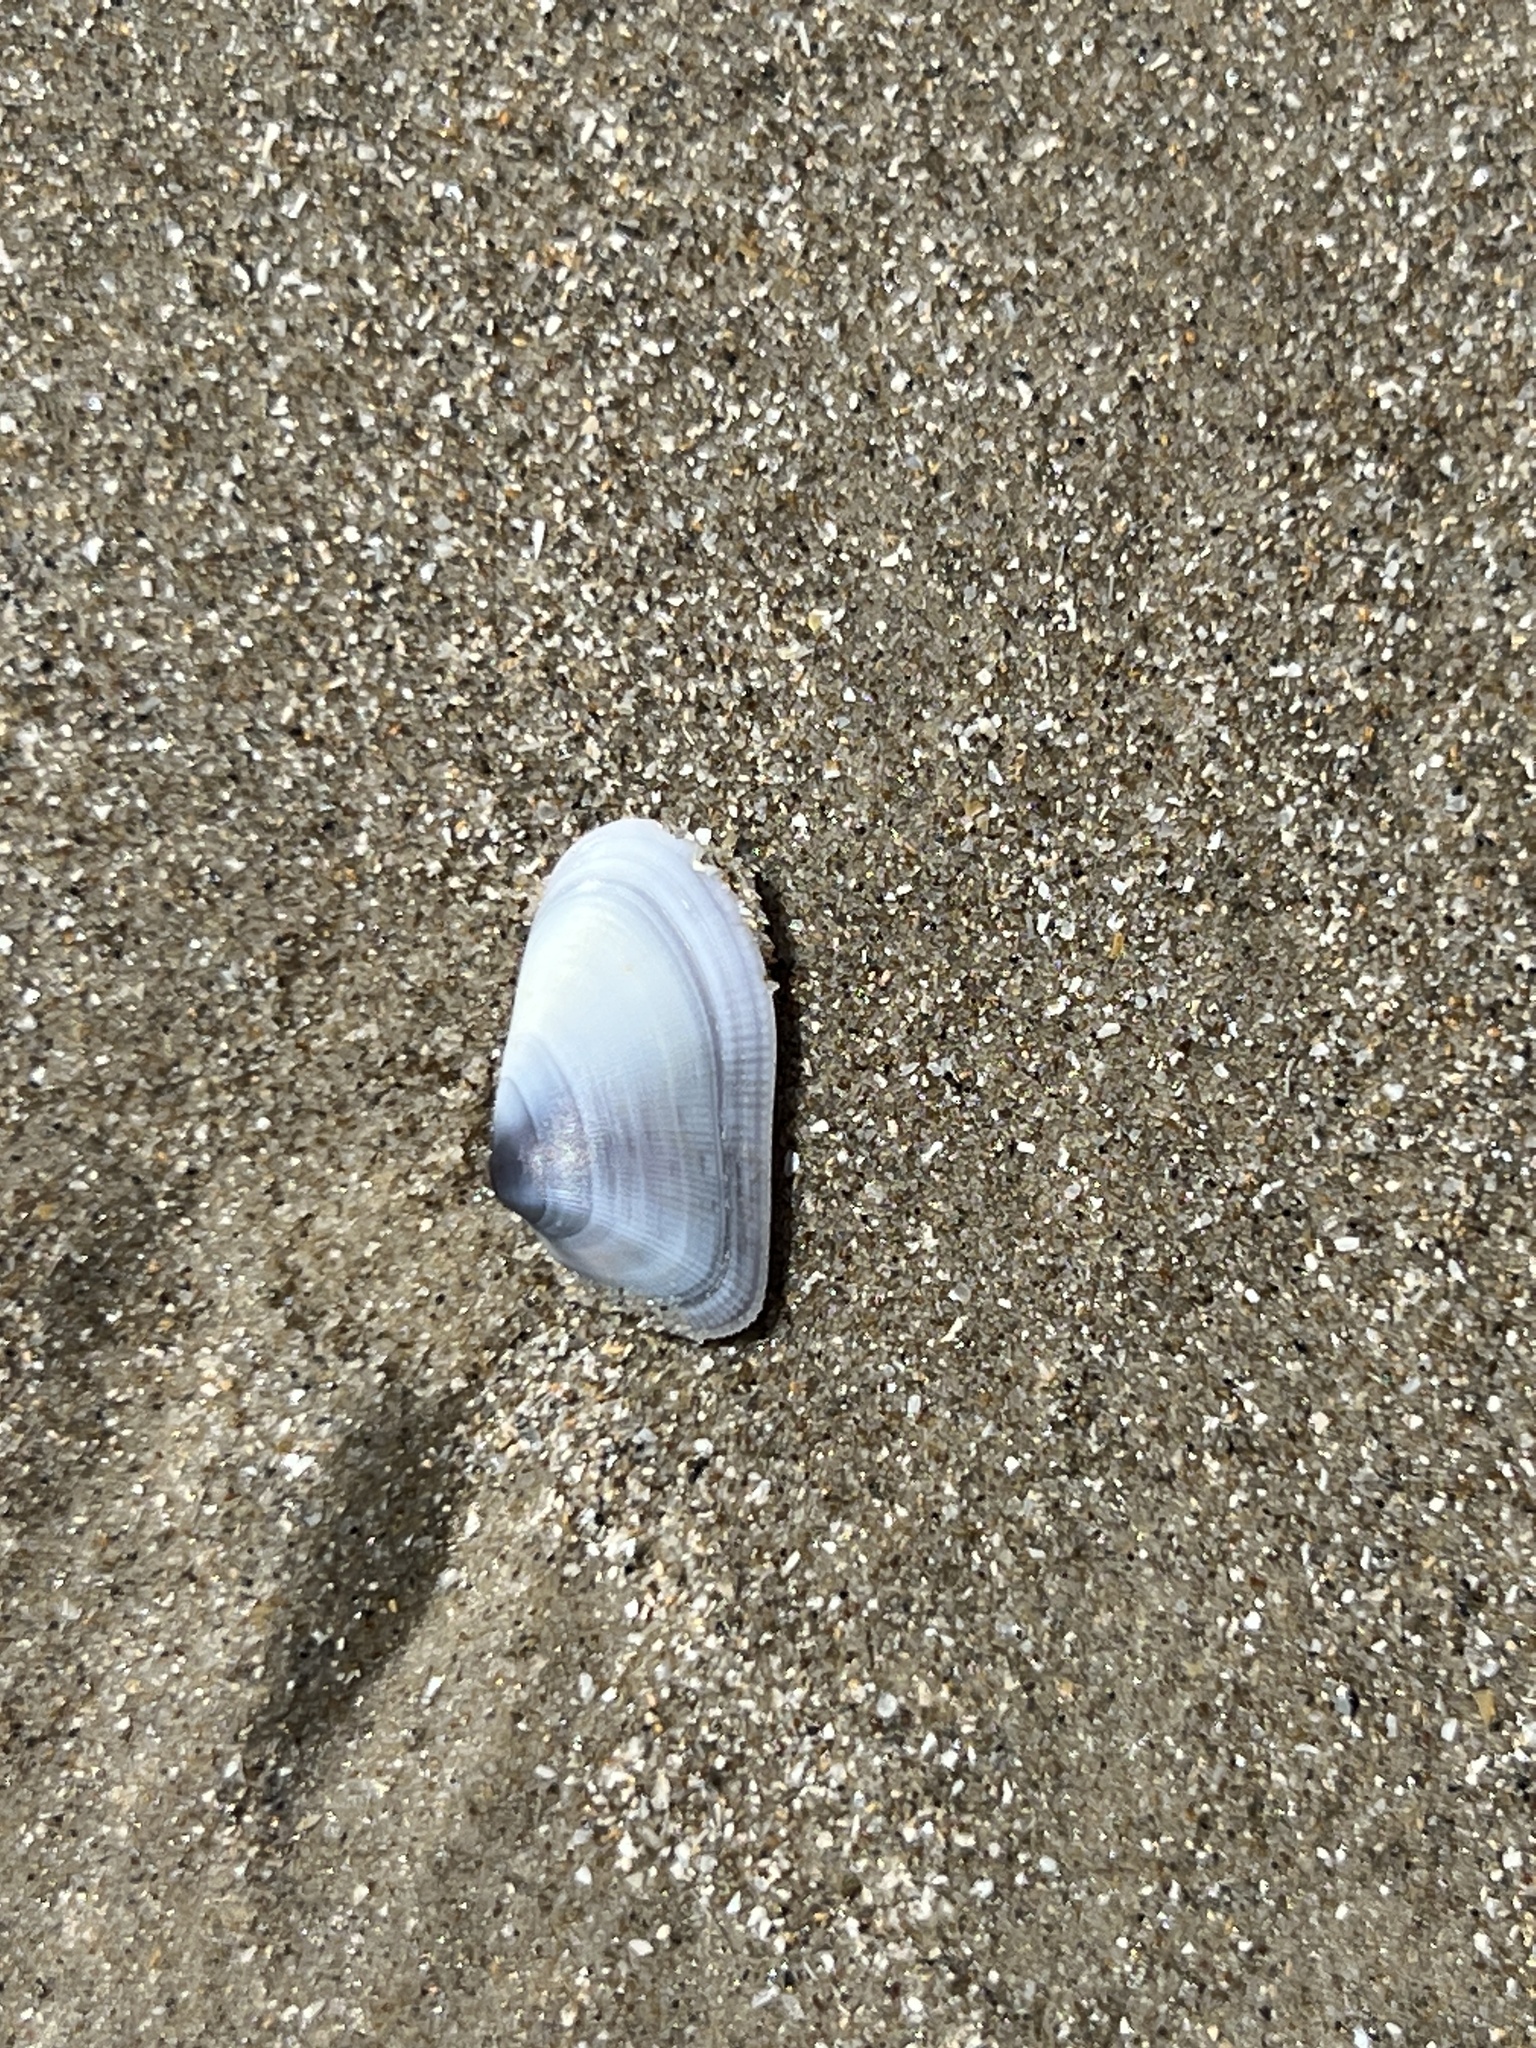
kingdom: Animalia
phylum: Mollusca
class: Bivalvia
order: Cardiida
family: Donacidae
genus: Donax
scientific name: Donax variabilis
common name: Butterfly shell
